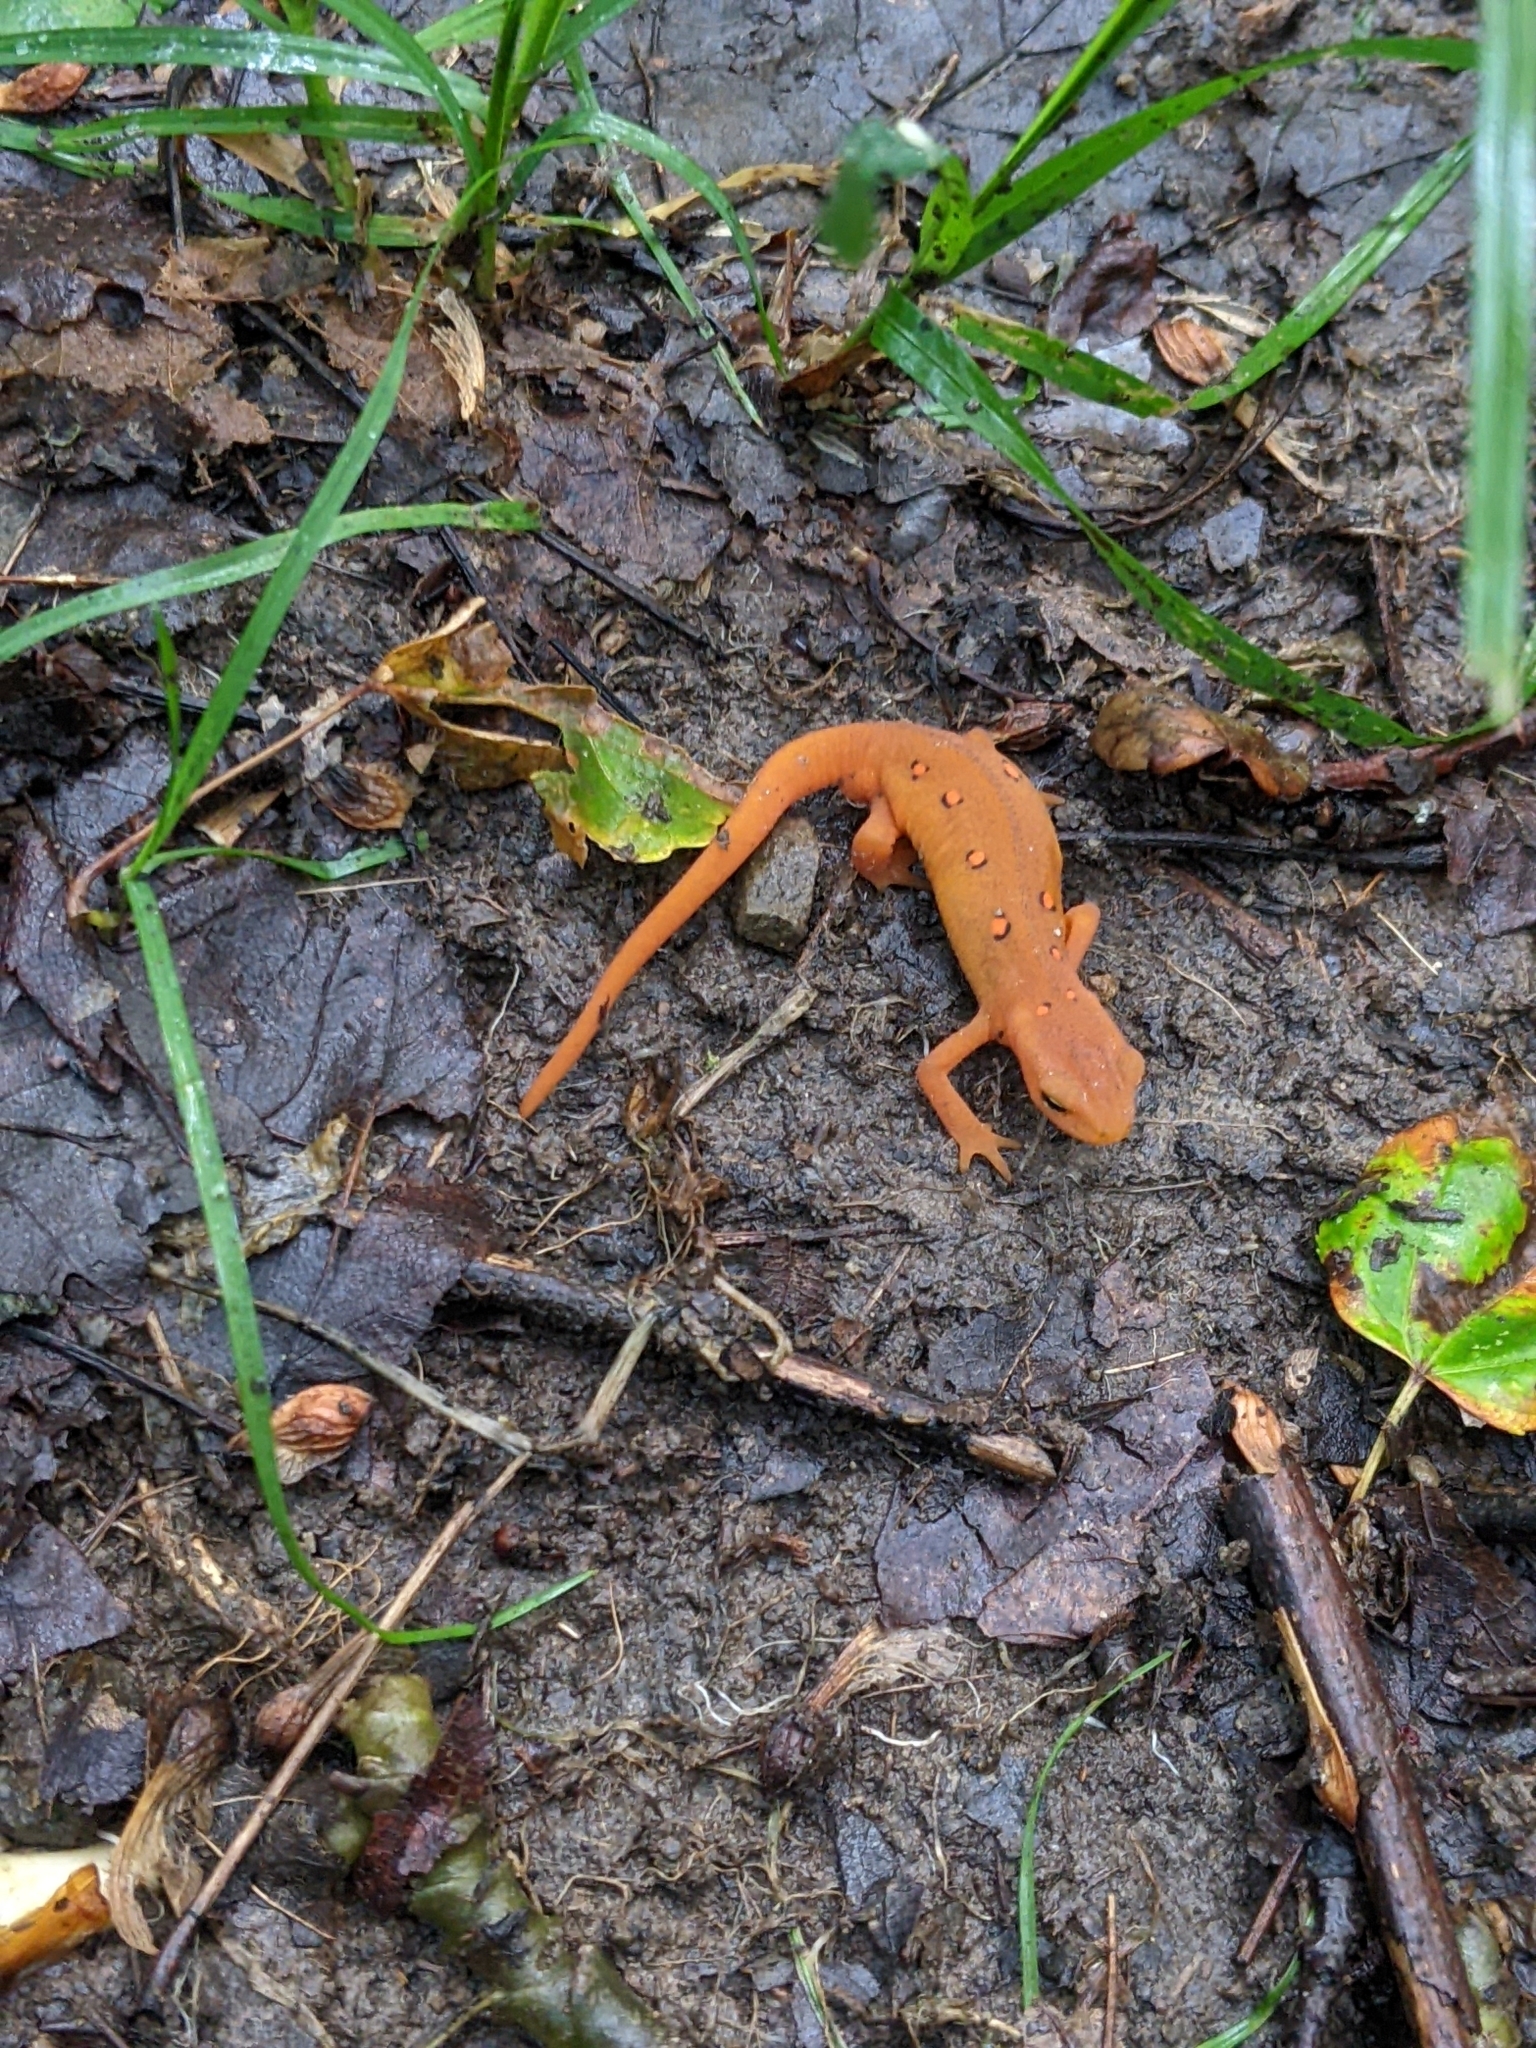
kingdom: Animalia
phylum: Chordata
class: Amphibia
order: Caudata
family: Salamandridae
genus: Notophthalmus
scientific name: Notophthalmus viridescens
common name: Eastern newt
